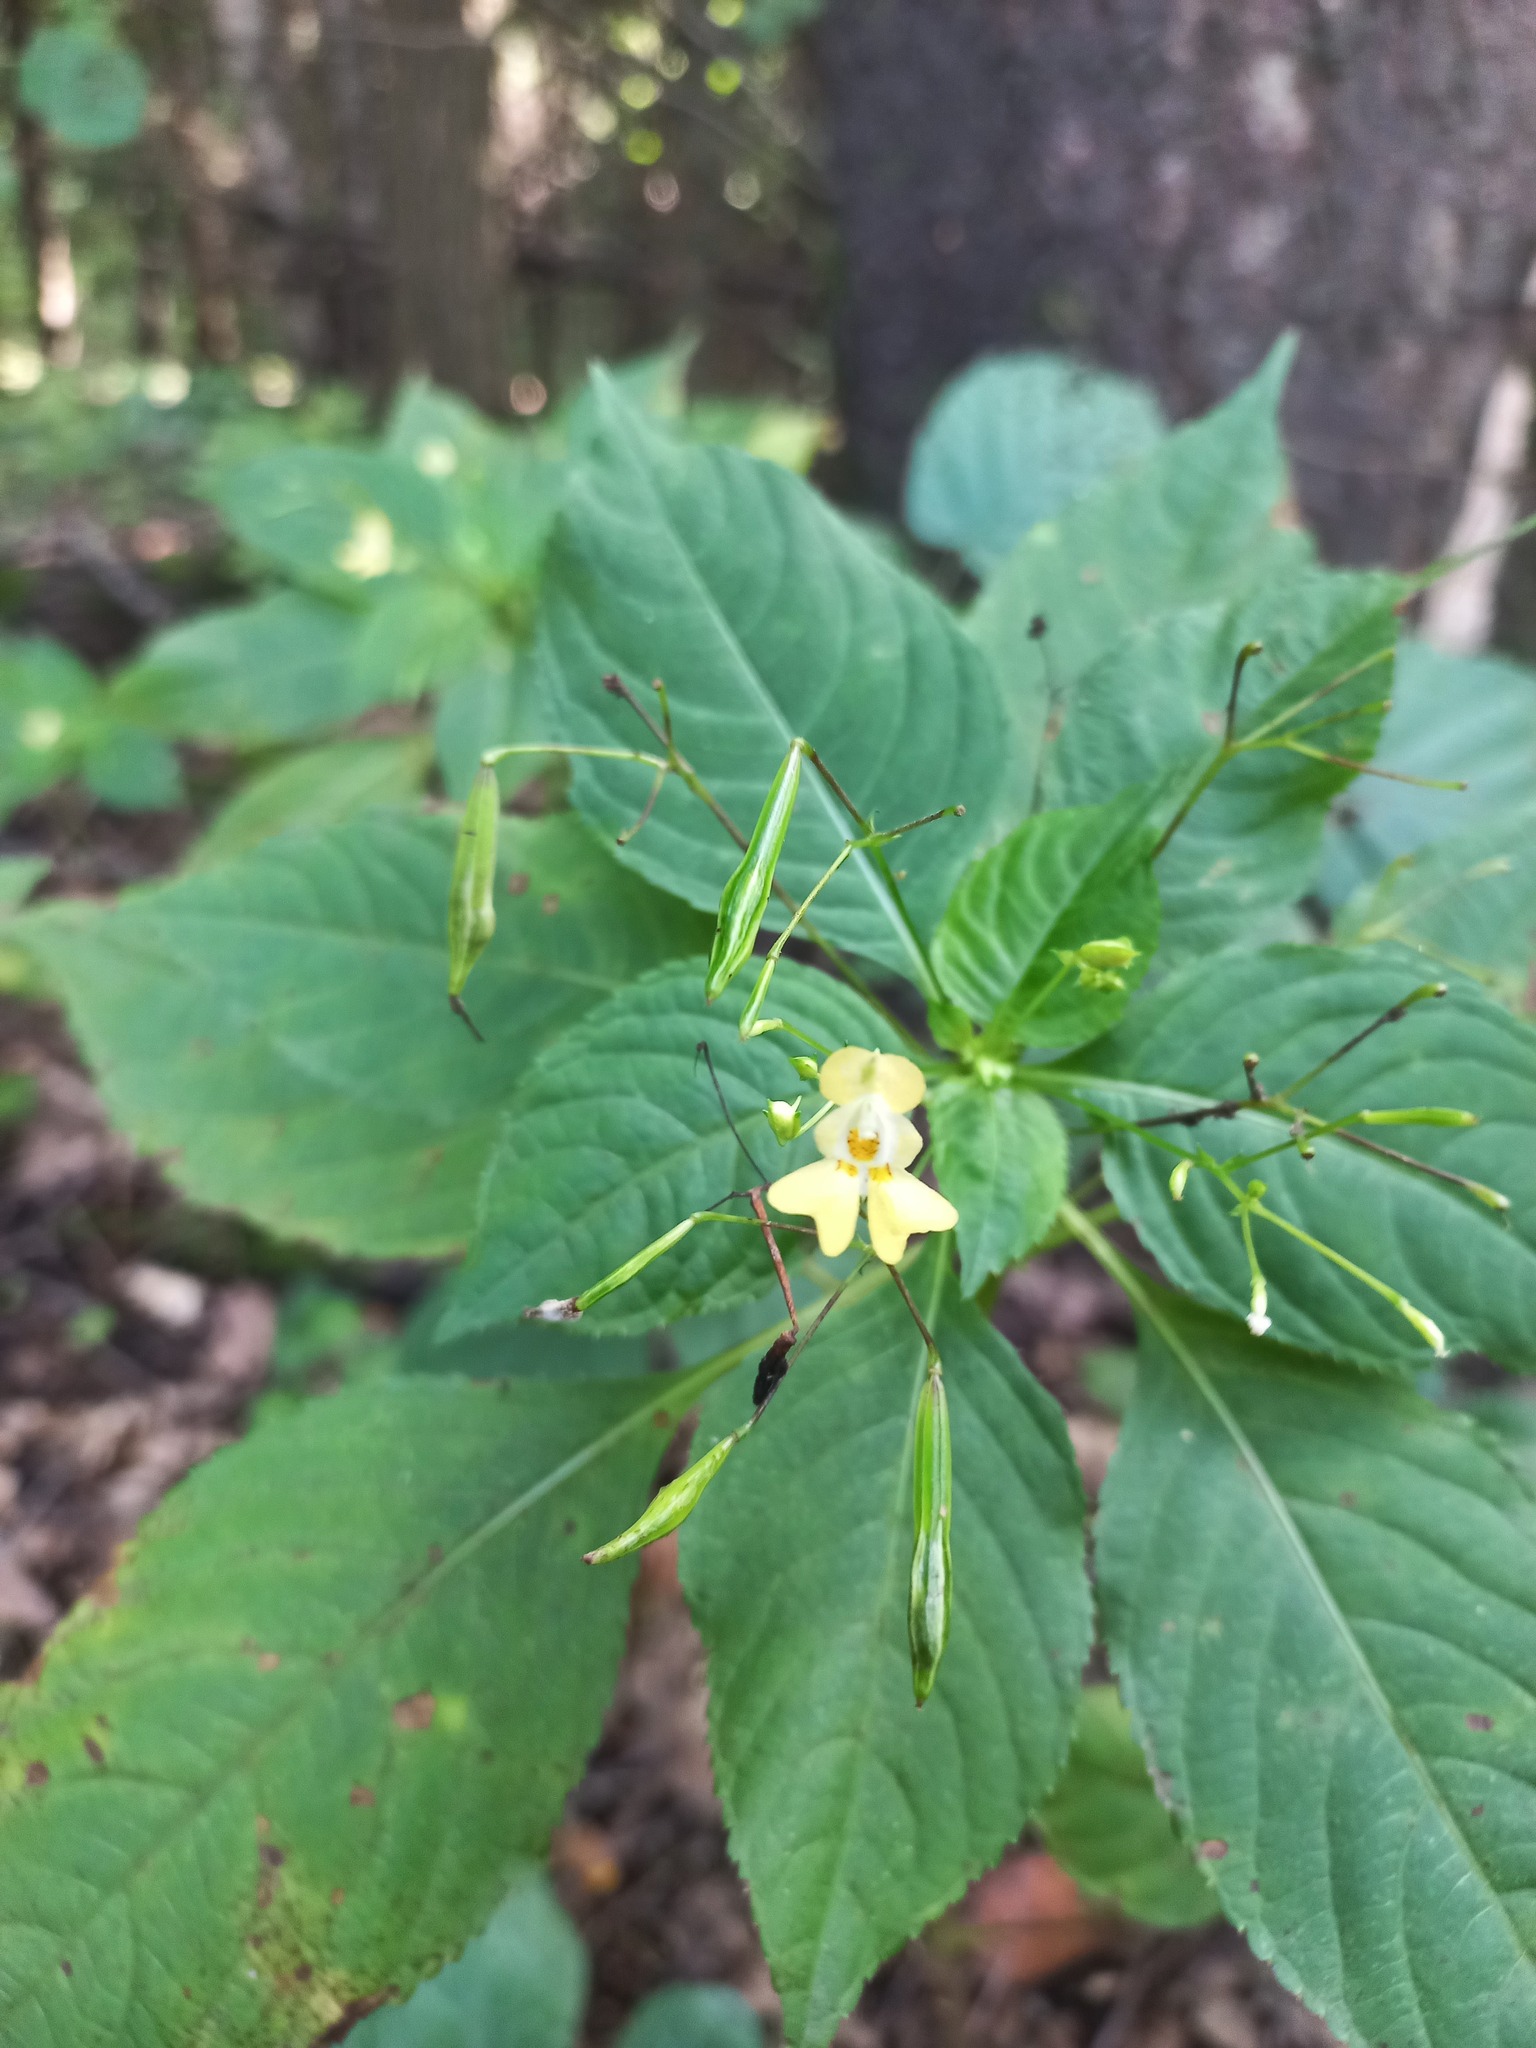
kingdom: Plantae
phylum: Tracheophyta
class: Magnoliopsida
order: Ericales
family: Balsaminaceae
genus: Impatiens
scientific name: Impatiens parviflora
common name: Small balsam
